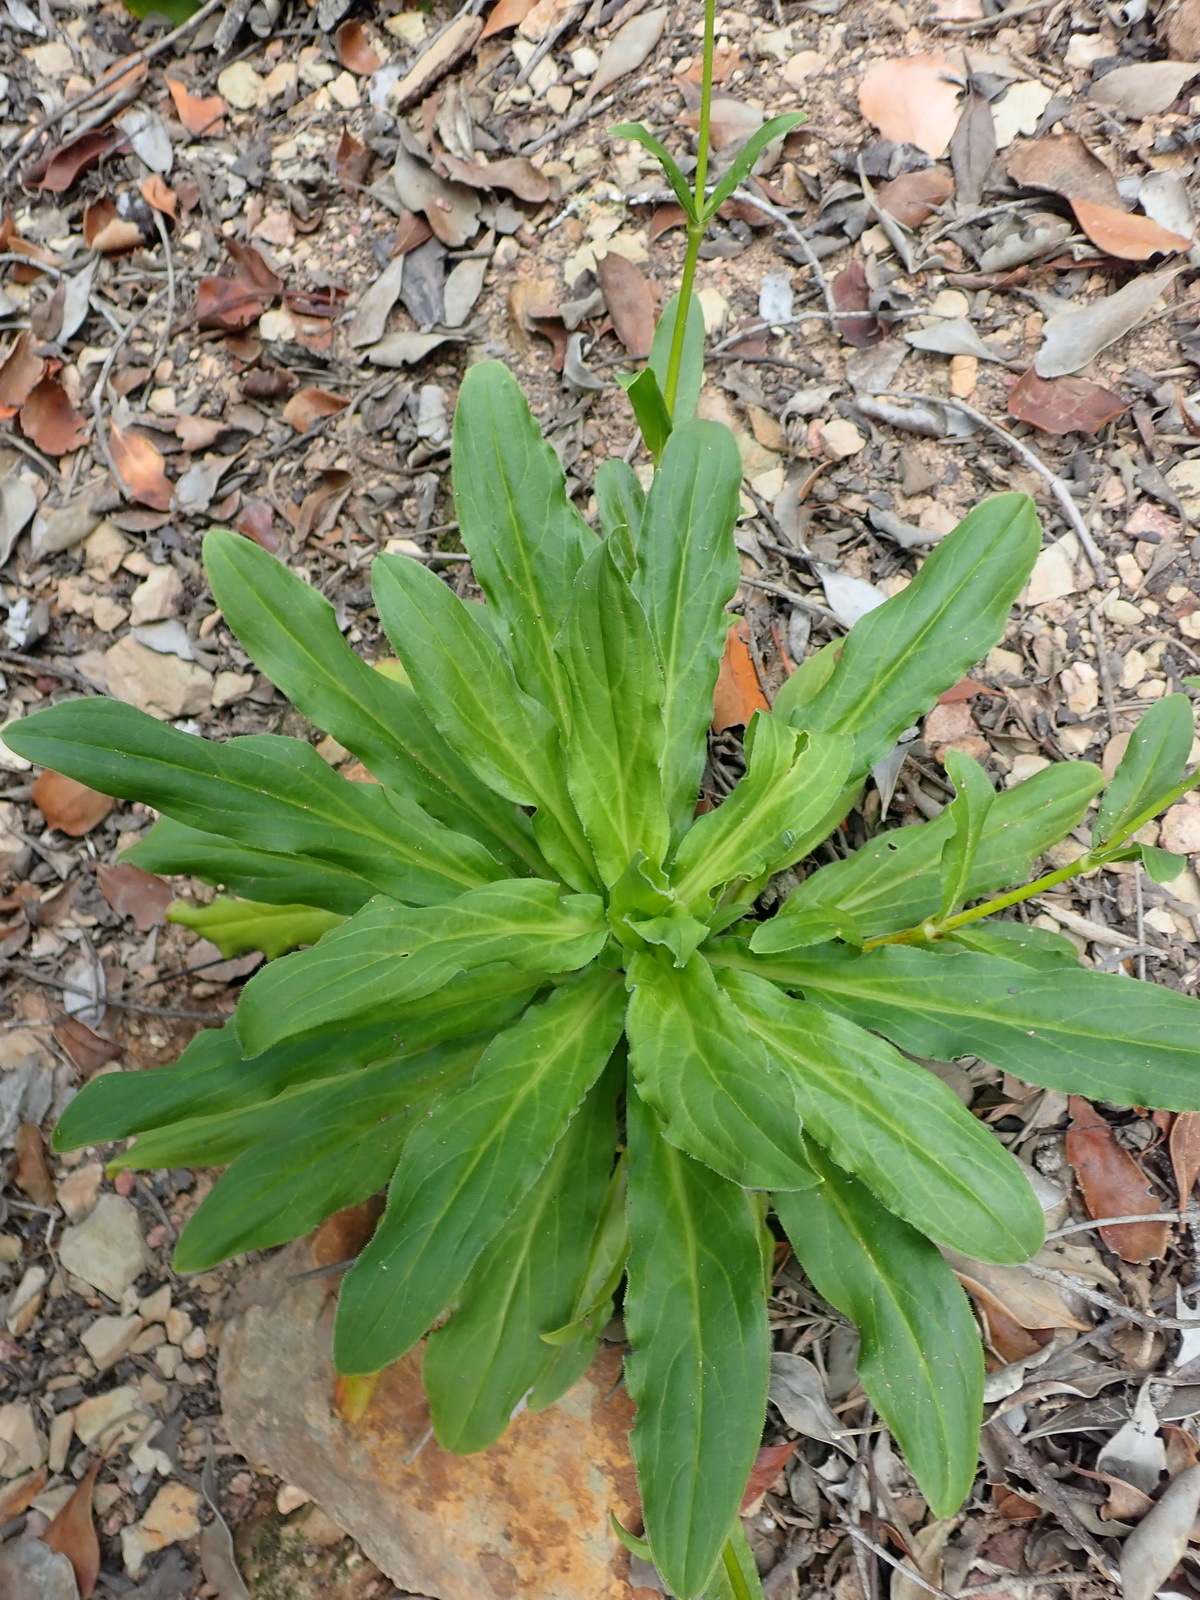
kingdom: Plantae
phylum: Tracheophyta
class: Magnoliopsida
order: Caryophyllales
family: Caryophyllaceae
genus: Silene
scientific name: Silene undulata
